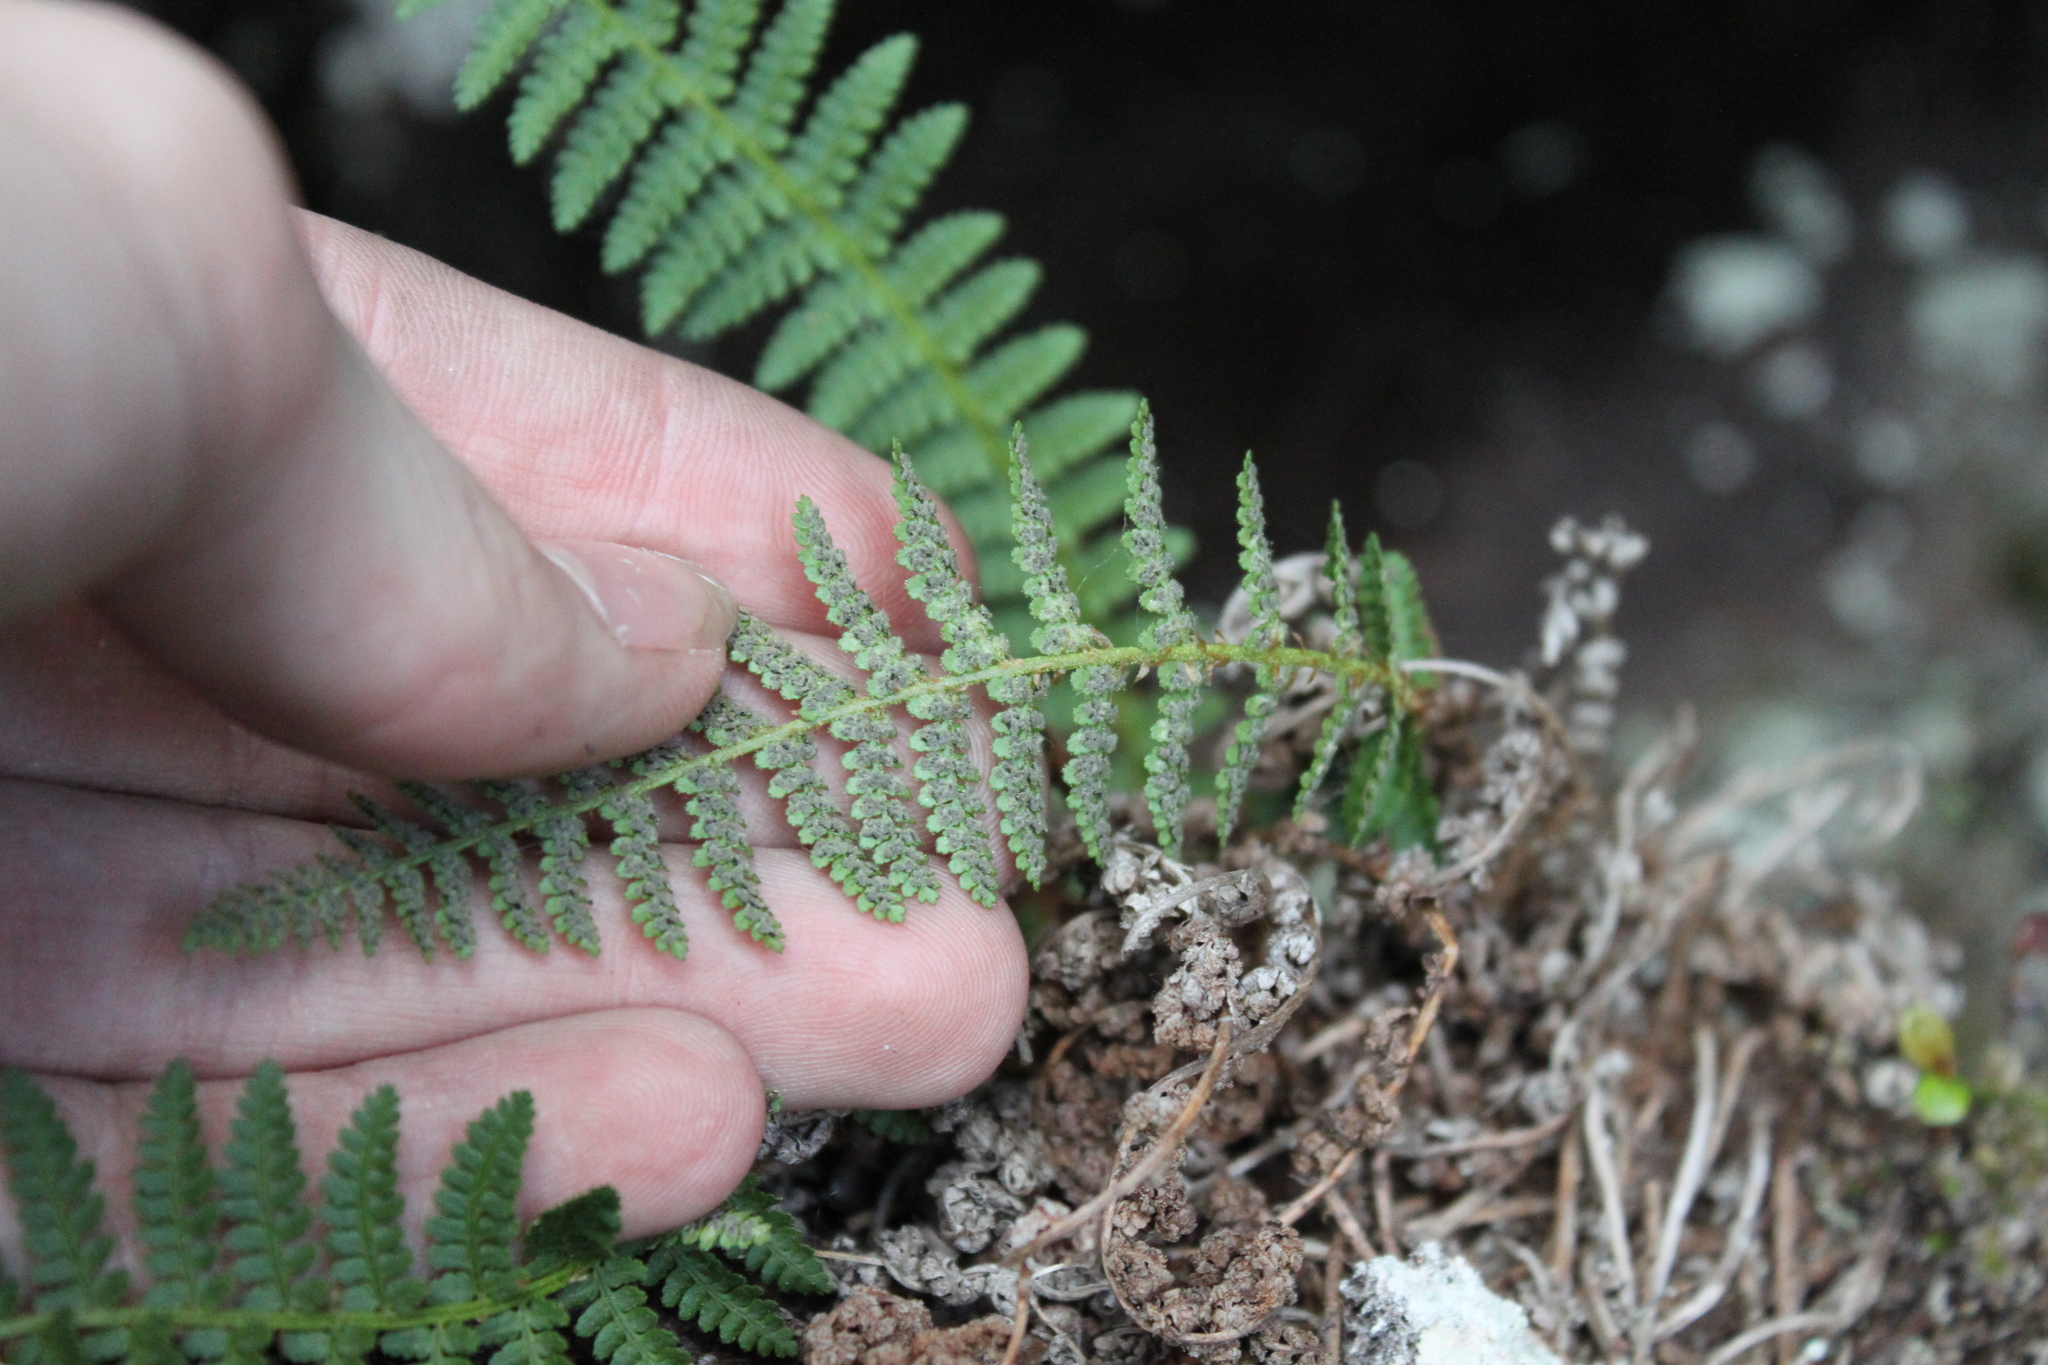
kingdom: Plantae
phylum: Tracheophyta
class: Polypodiopsida
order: Polypodiales
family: Dryopteridaceae
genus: Dryopteris
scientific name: Dryopteris fragrans
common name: Fragrant wood fern
